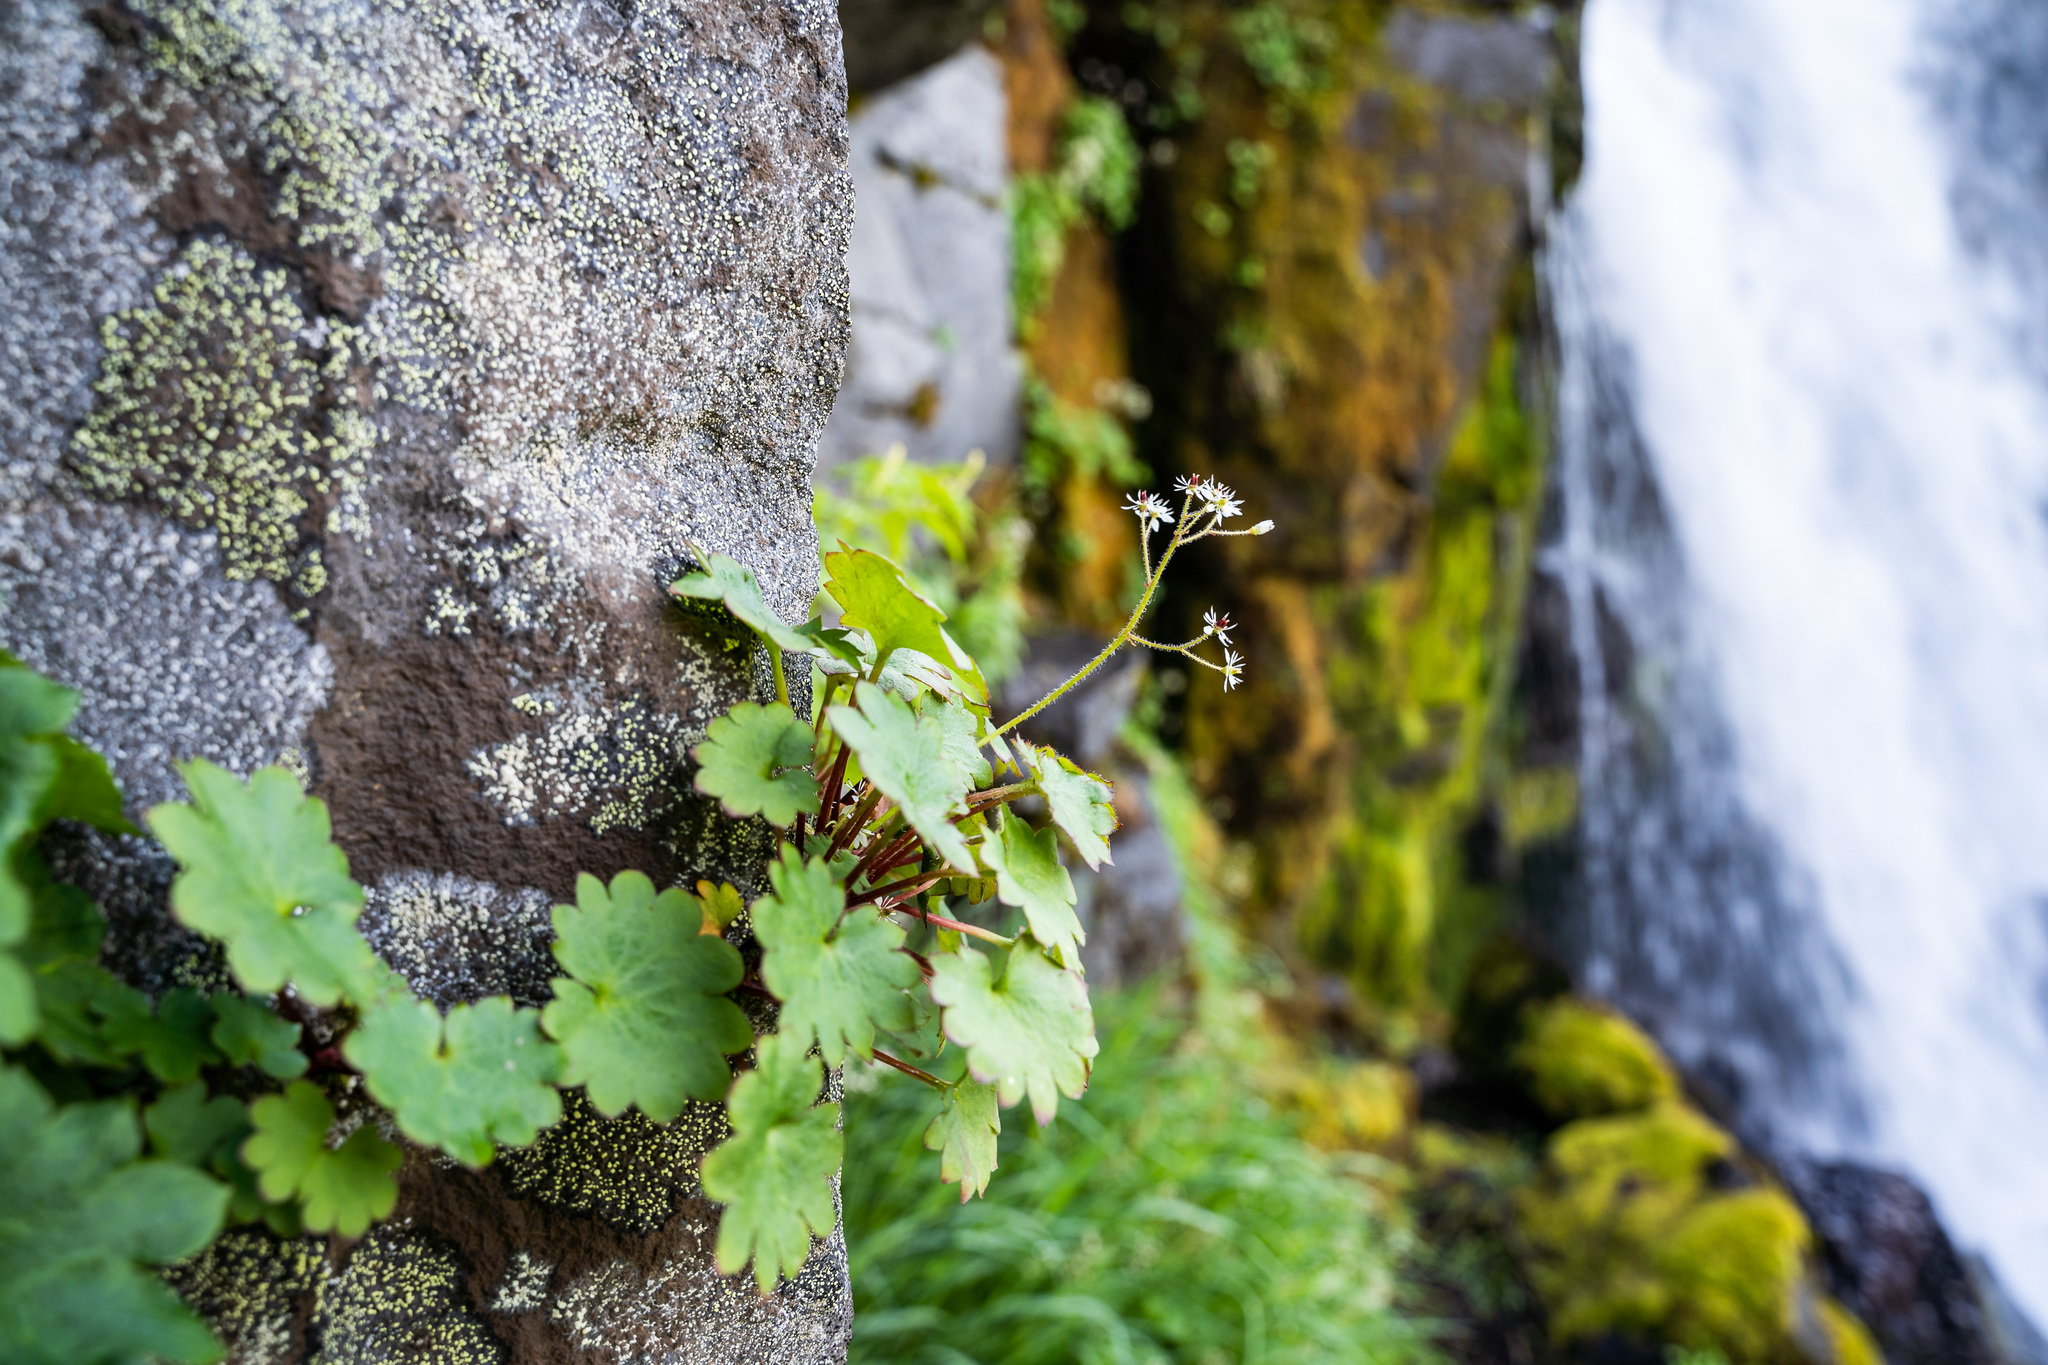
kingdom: Plantae
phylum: Tracheophyta
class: Magnoliopsida
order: Saxifragales
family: Saxifragaceae
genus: Micranthes
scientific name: Micranthes nelsoniana
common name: Nelson's saxifrage
